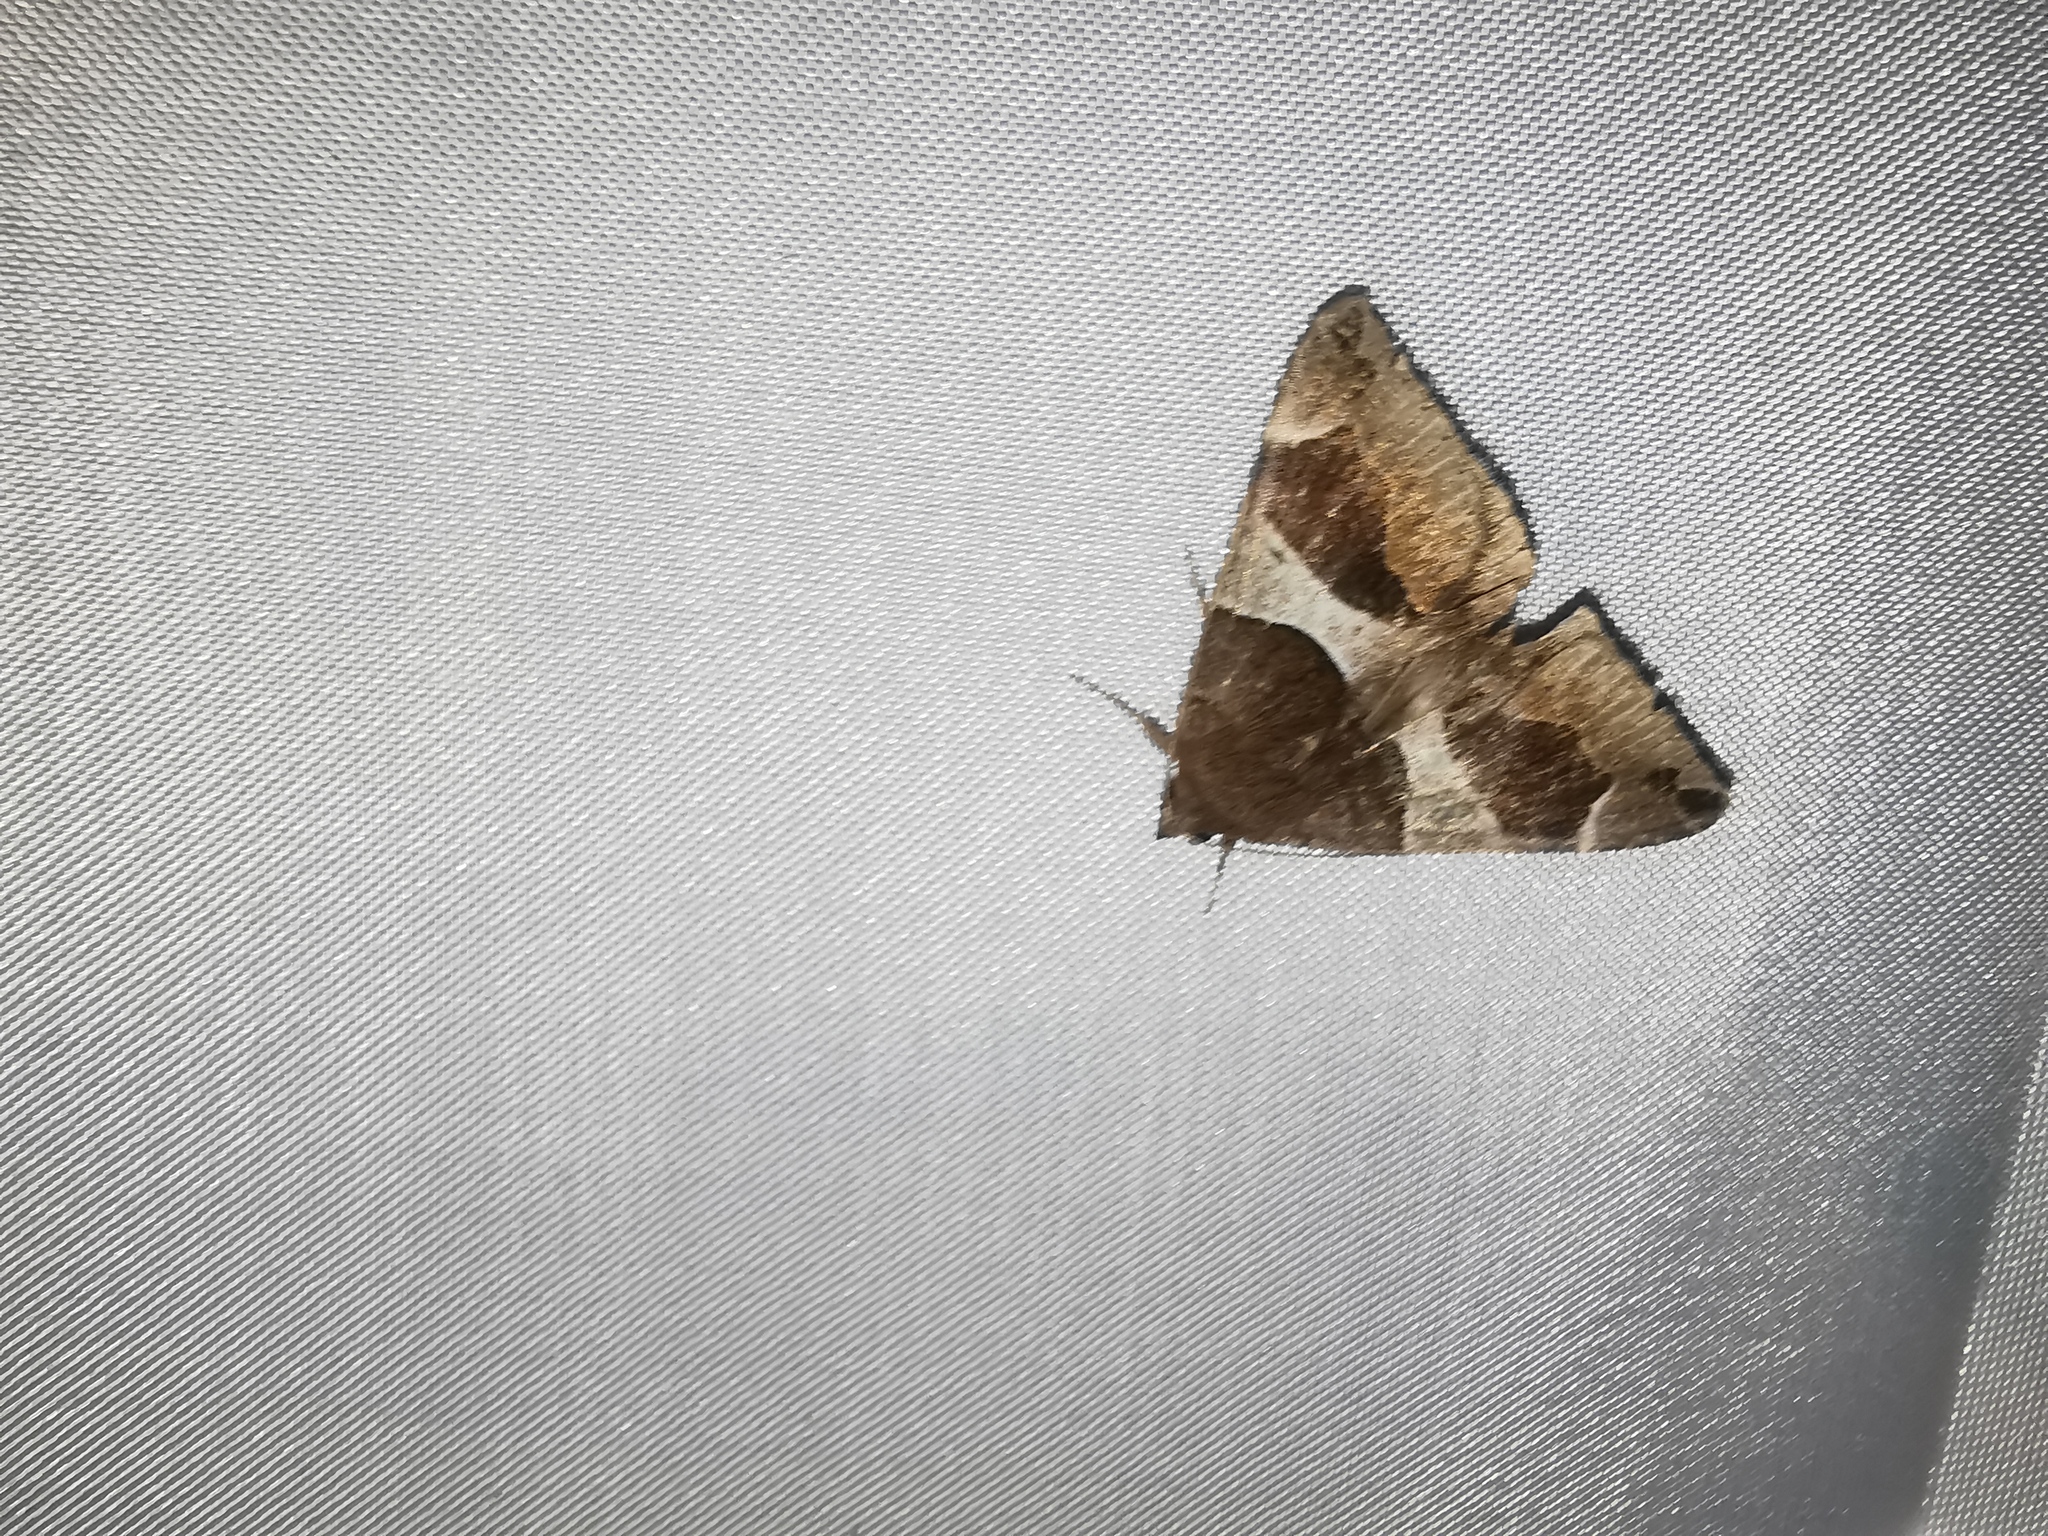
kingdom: Animalia
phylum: Arthropoda
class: Insecta
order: Lepidoptera
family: Erebidae
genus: Dysgonia
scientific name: Dysgonia algira
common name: Passenger
